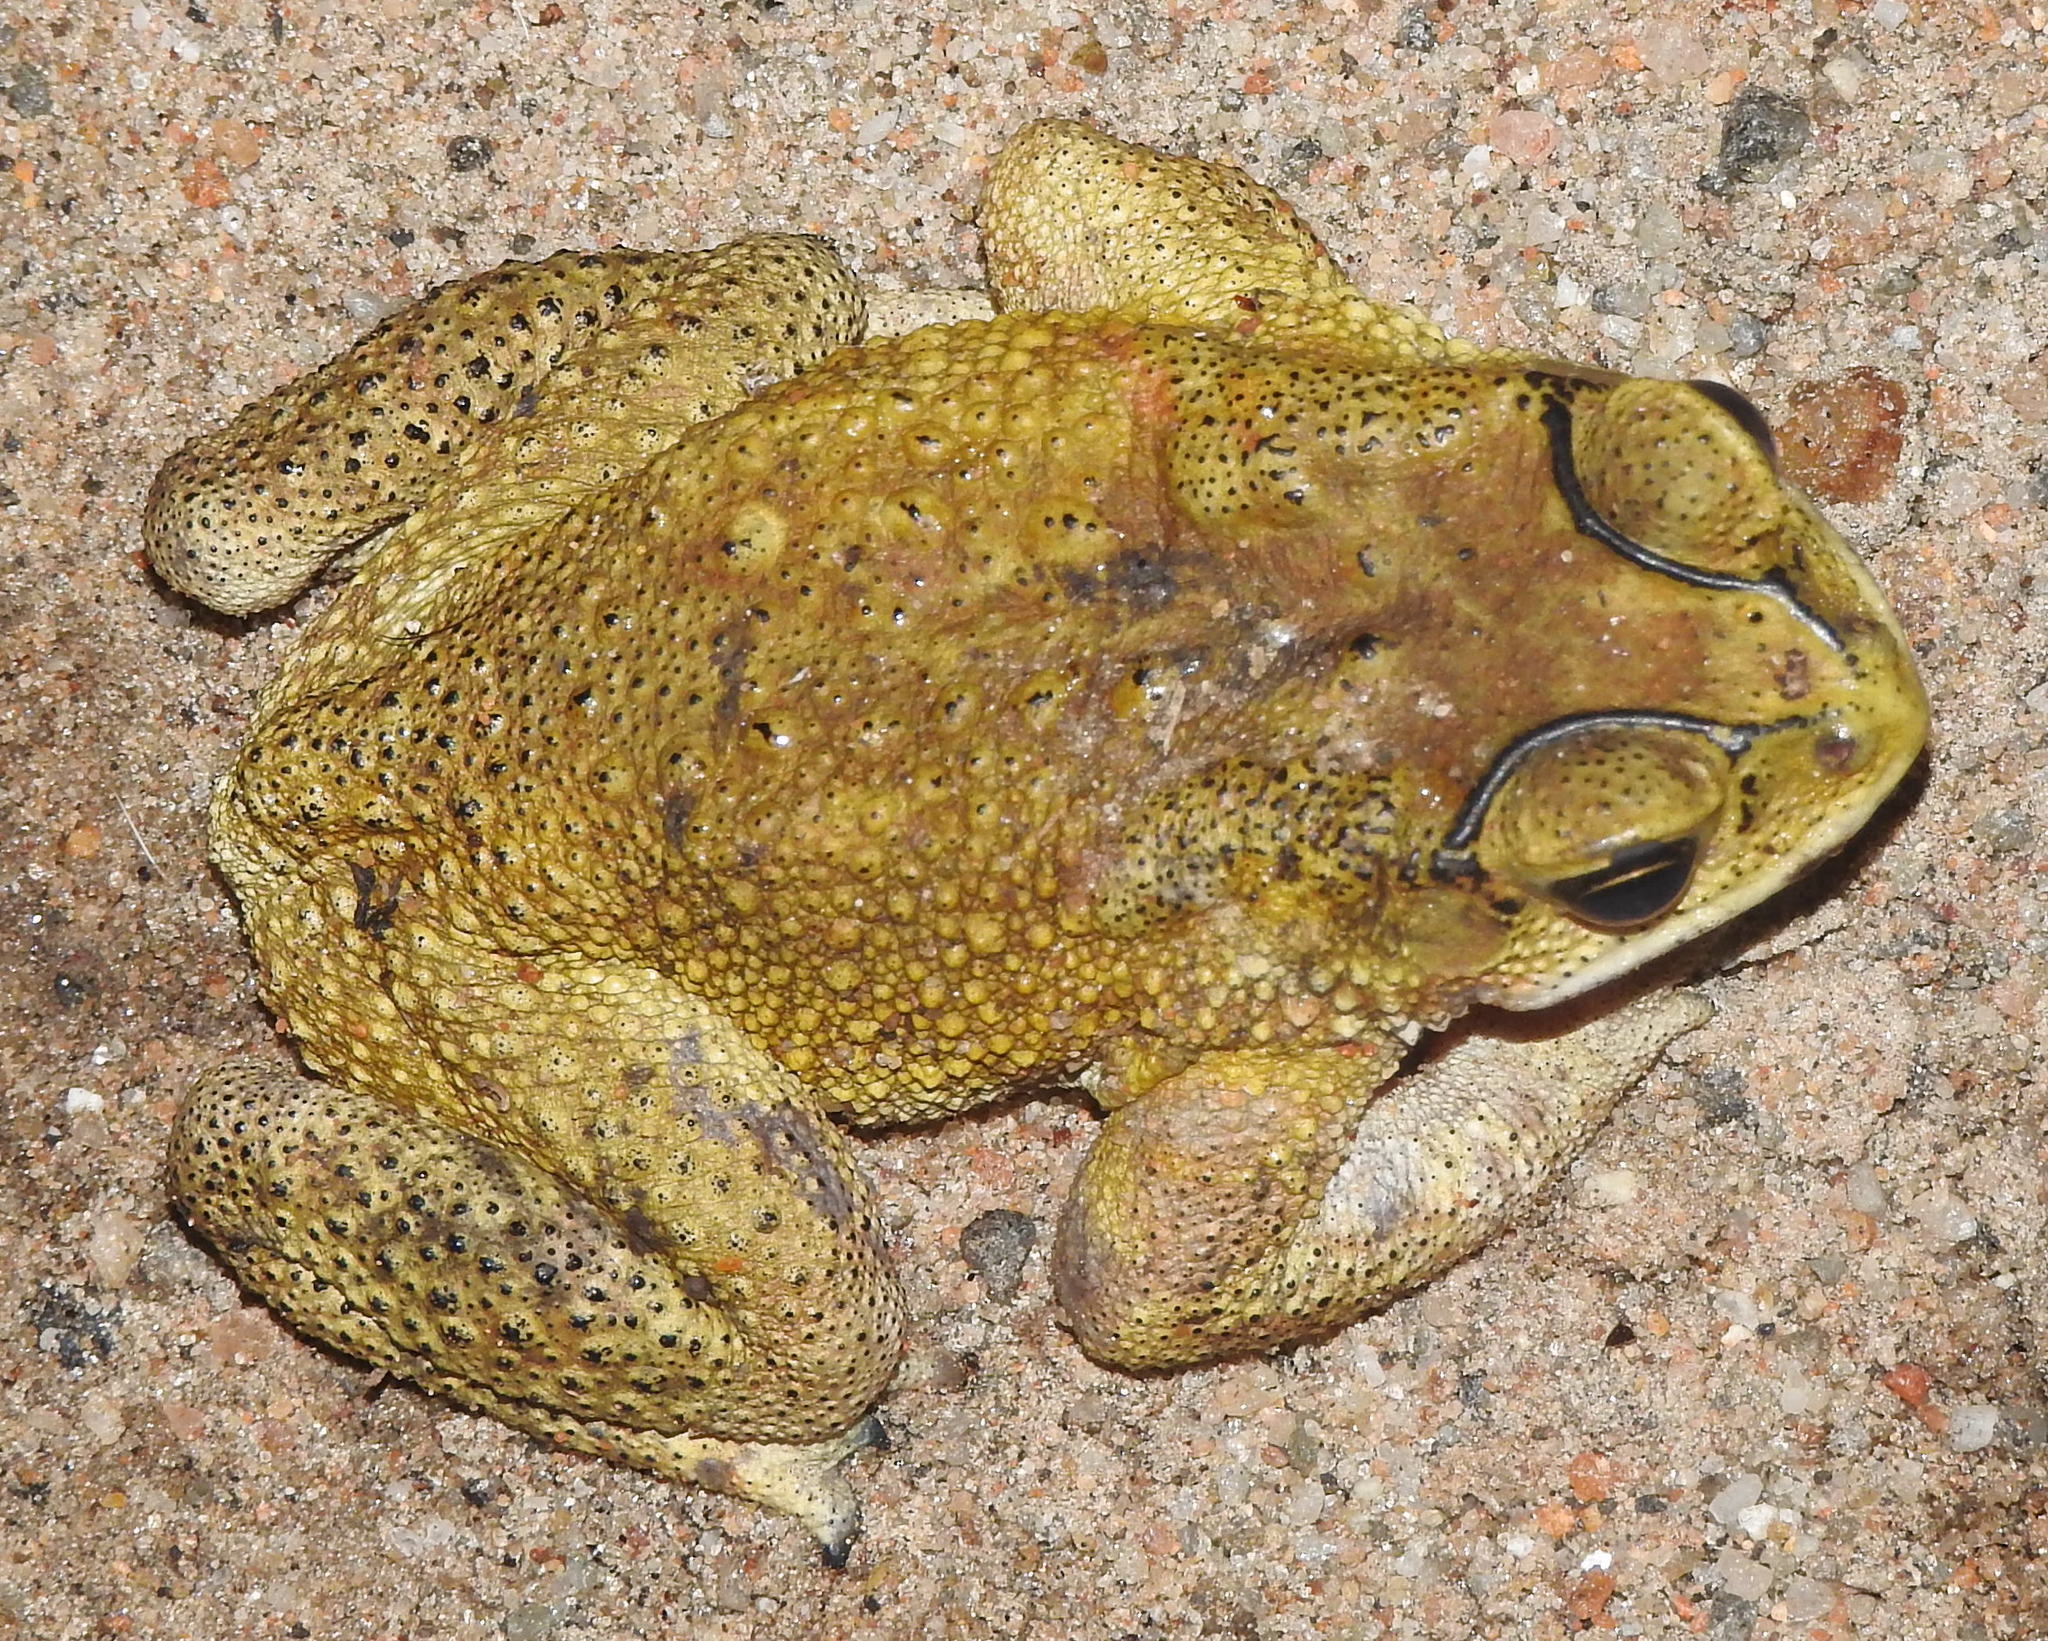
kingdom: Animalia
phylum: Chordata
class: Amphibia
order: Anura
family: Bufonidae
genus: Duttaphrynus
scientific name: Duttaphrynus melanostictus
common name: Common sunda toad
